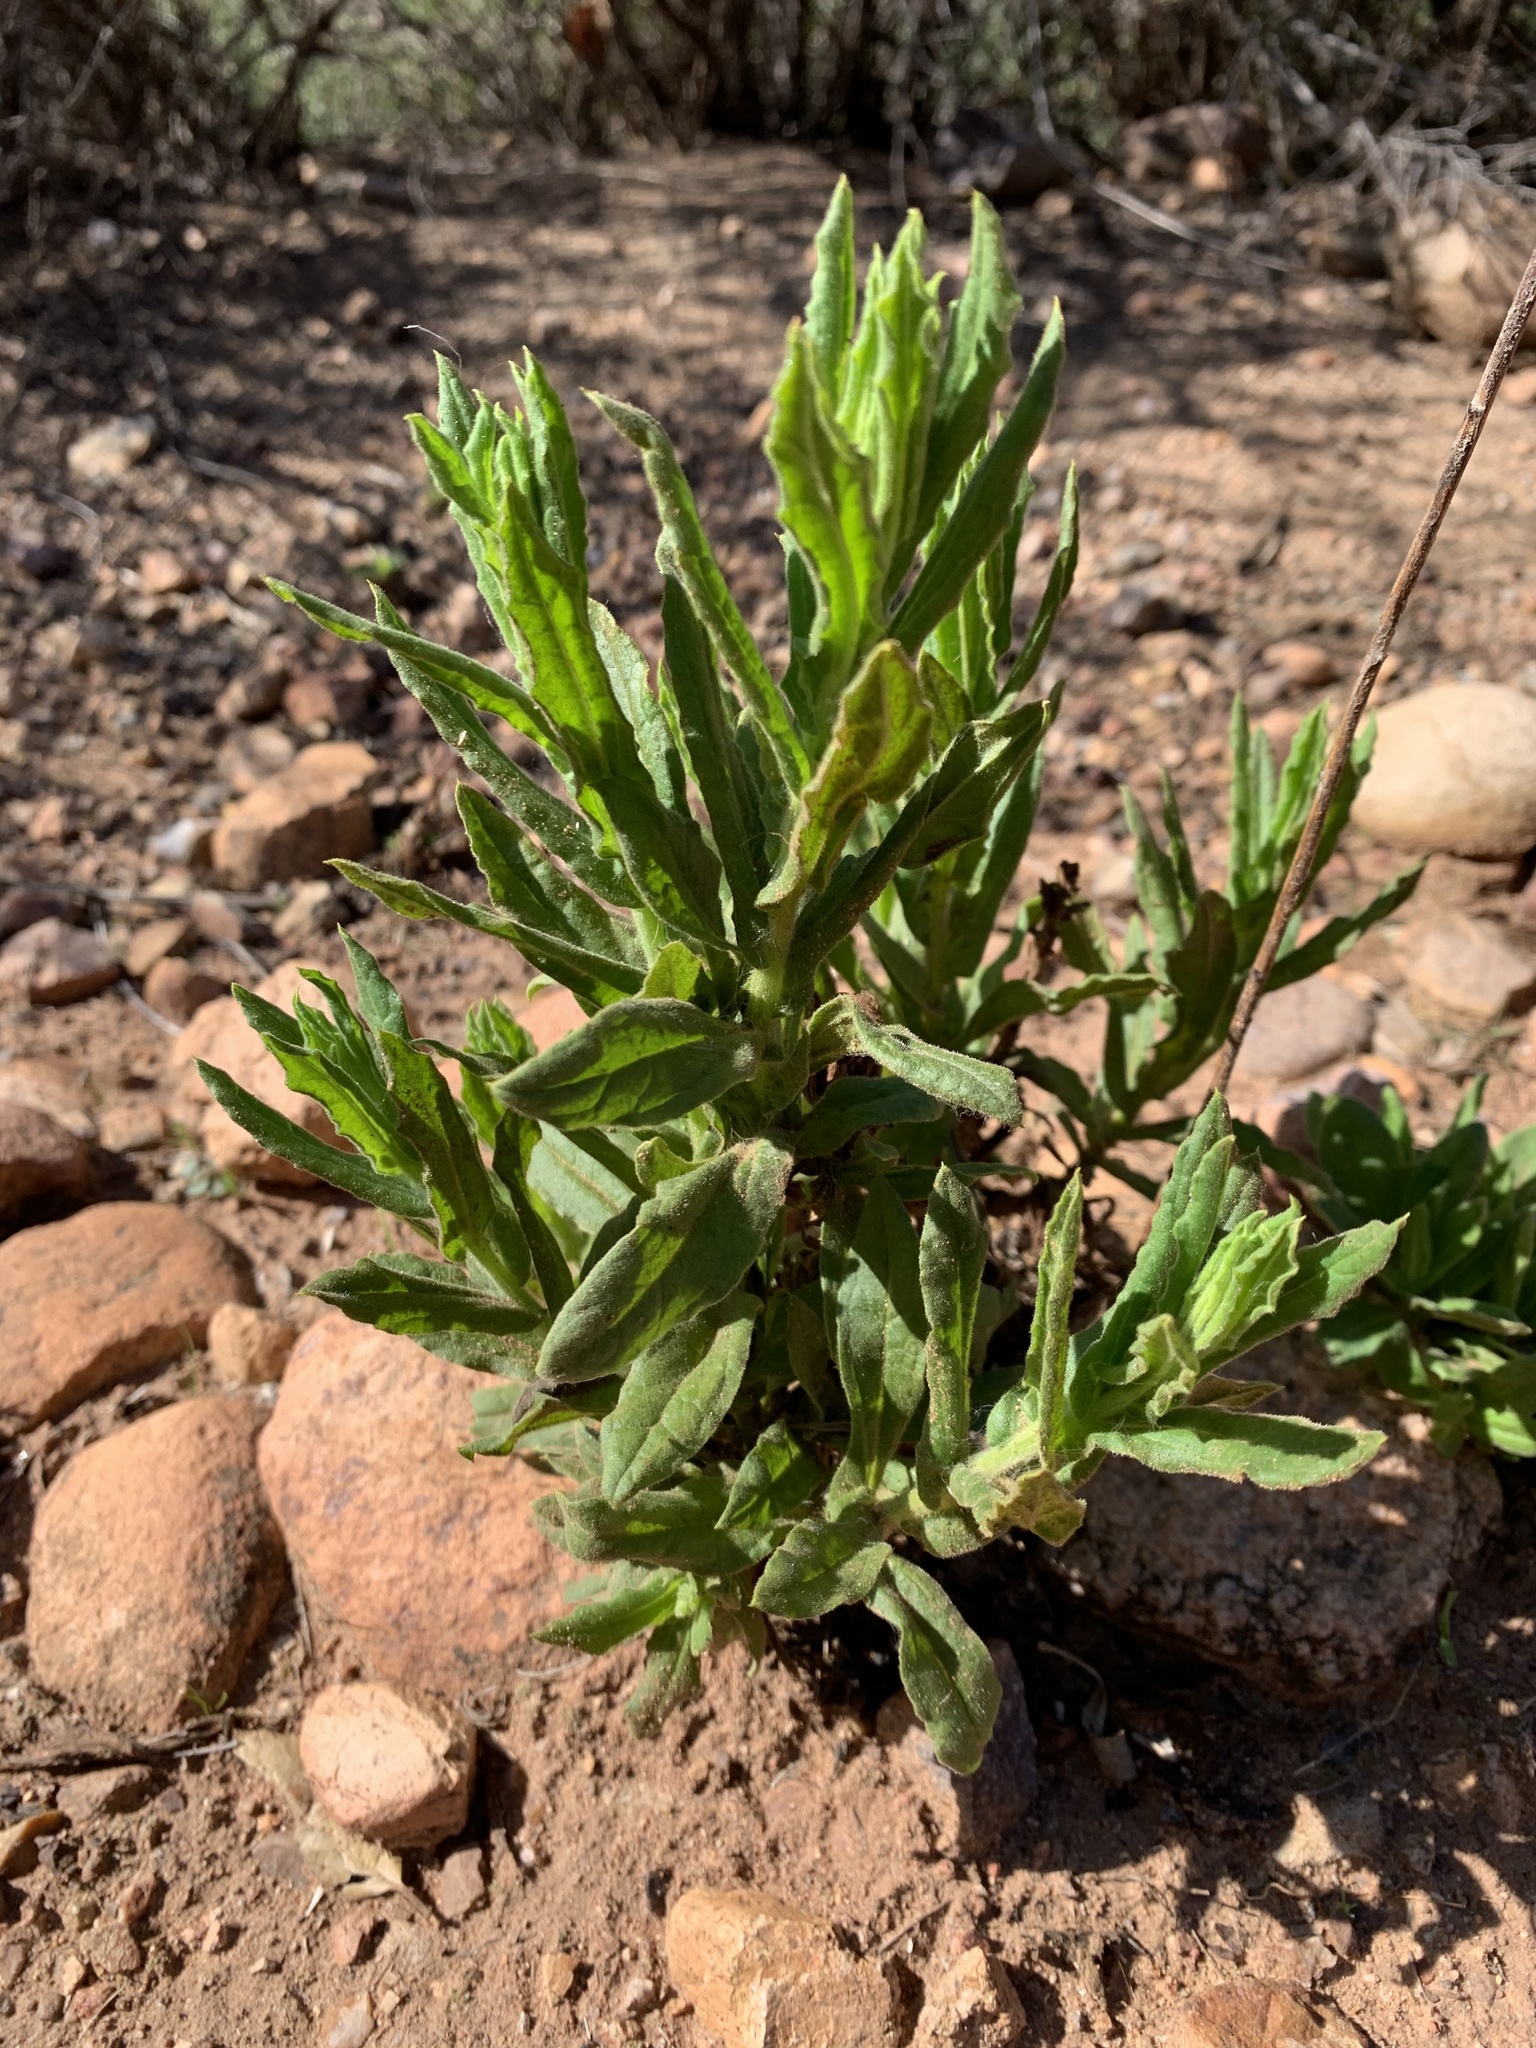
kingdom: Plantae
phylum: Tracheophyta
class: Magnoliopsida
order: Asterales
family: Asteraceae
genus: Pseudognaphalium
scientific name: Pseudognaphalium californicum
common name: California rabbit-tobacco
